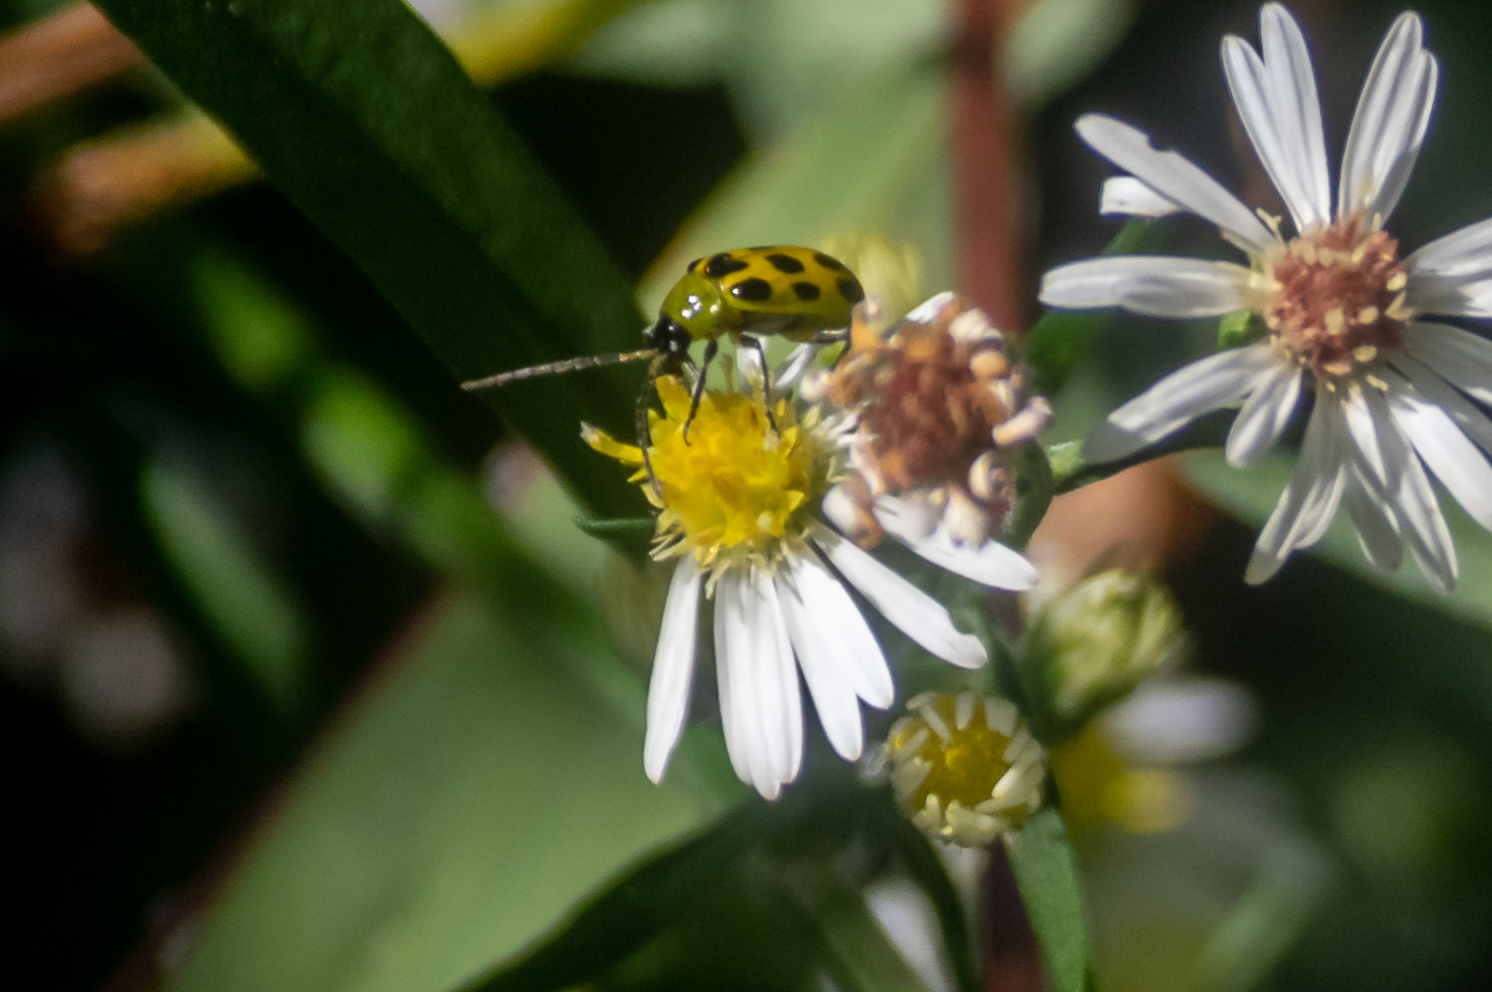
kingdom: Animalia
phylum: Arthropoda
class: Insecta
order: Coleoptera
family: Chrysomelidae
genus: Diabrotica
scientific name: Diabrotica undecimpunctata
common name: Spotted cucumber beetle
